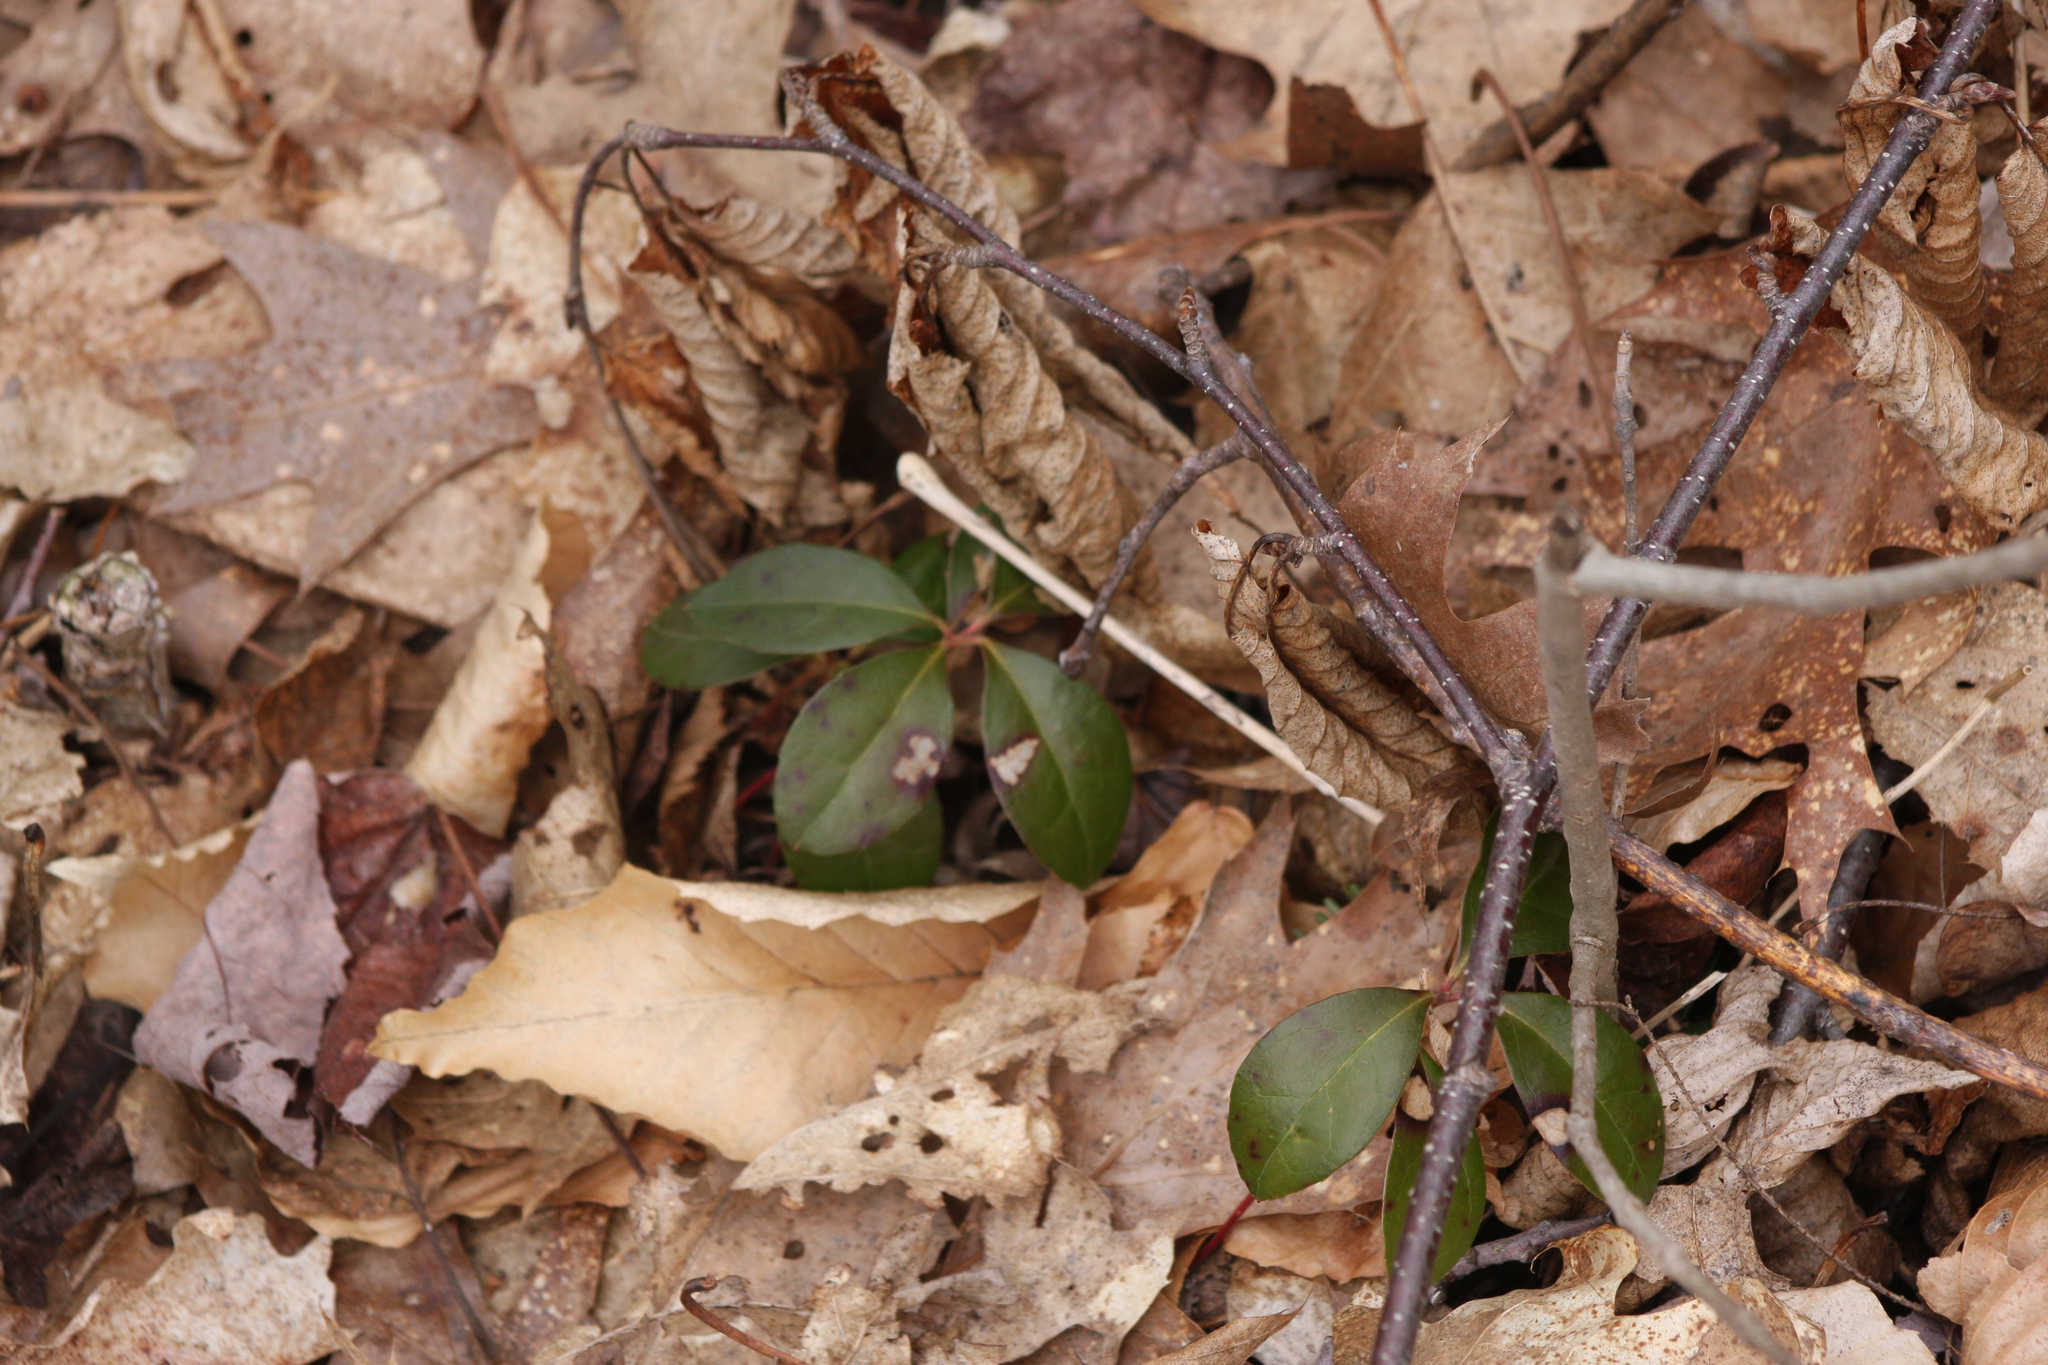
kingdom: Plantae
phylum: Tracheophyta
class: Magnoliopsida
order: Ericales
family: Ericaceae
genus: Gaultheria
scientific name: Gaultheria procumbens
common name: Checkerberry
